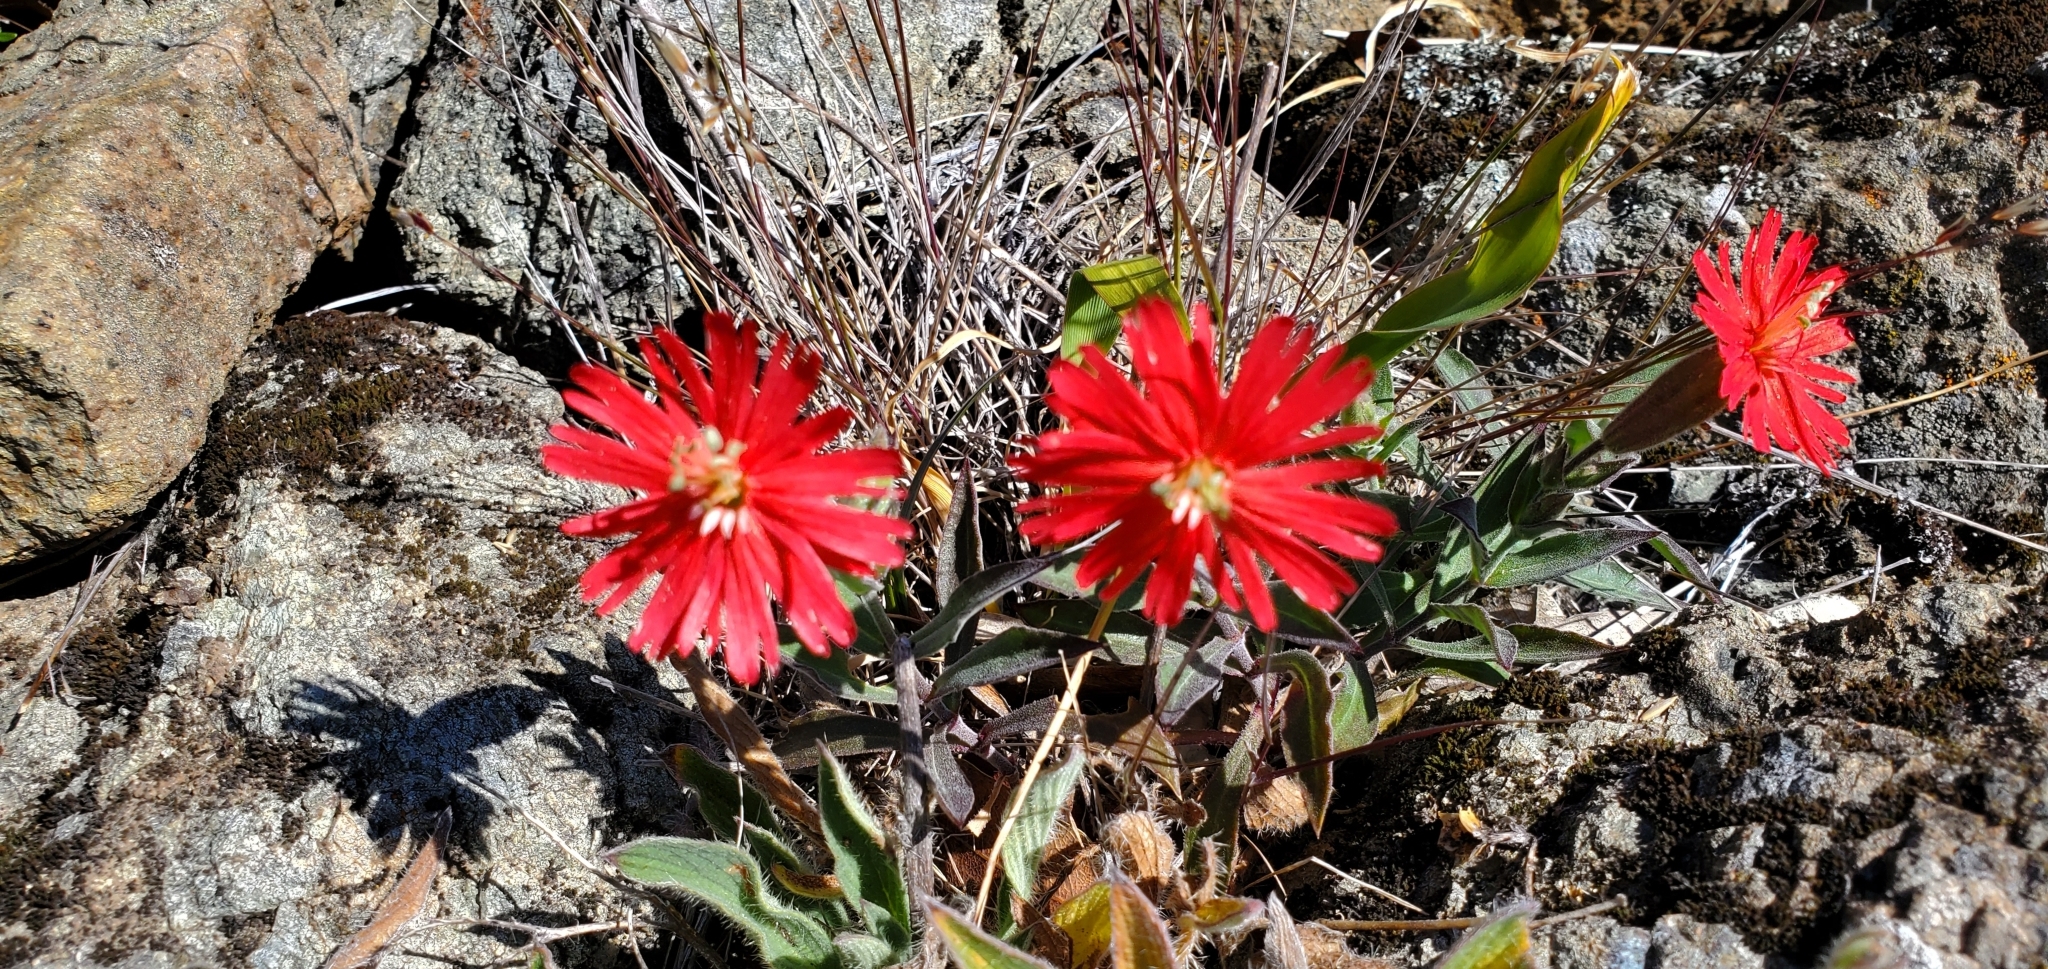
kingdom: Plantae
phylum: Tracheophyta
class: Magnoliopsida
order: Caryophyllales
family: Caryophyllaceae
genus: Silene
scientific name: Silene laciniata
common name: Indian-pink
